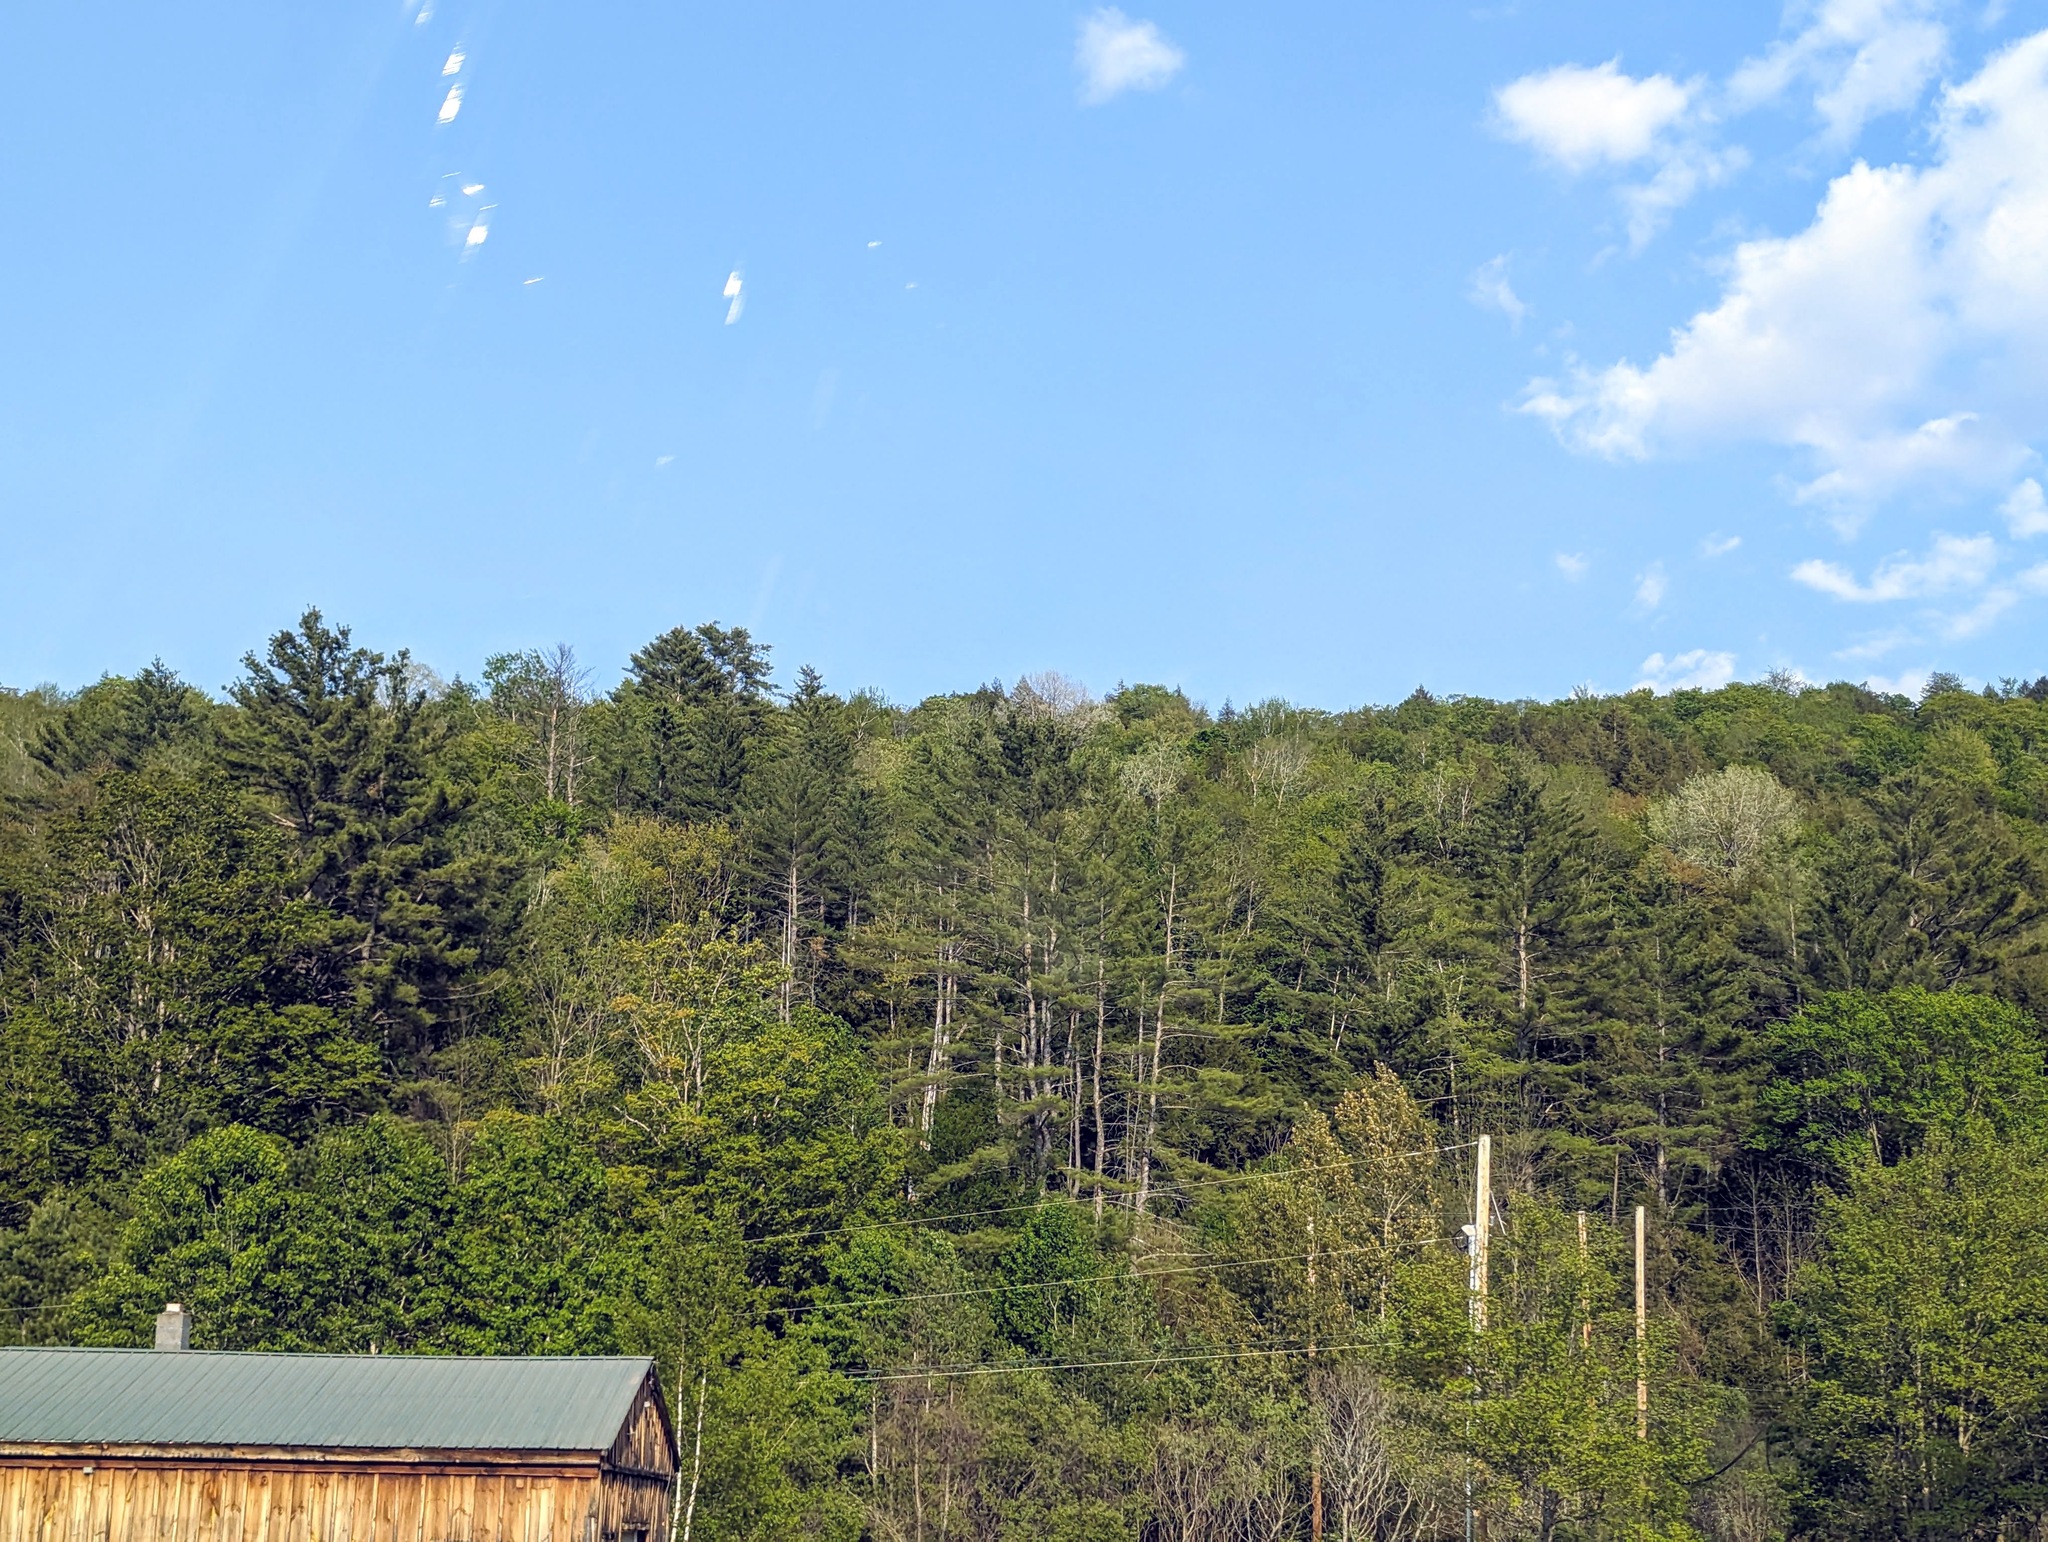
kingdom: Plantae
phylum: Tracheophyta
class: Pinopsida
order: Pinales
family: Pinaceae
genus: Pinus
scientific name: Pinus strobus
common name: Weymouth pine
